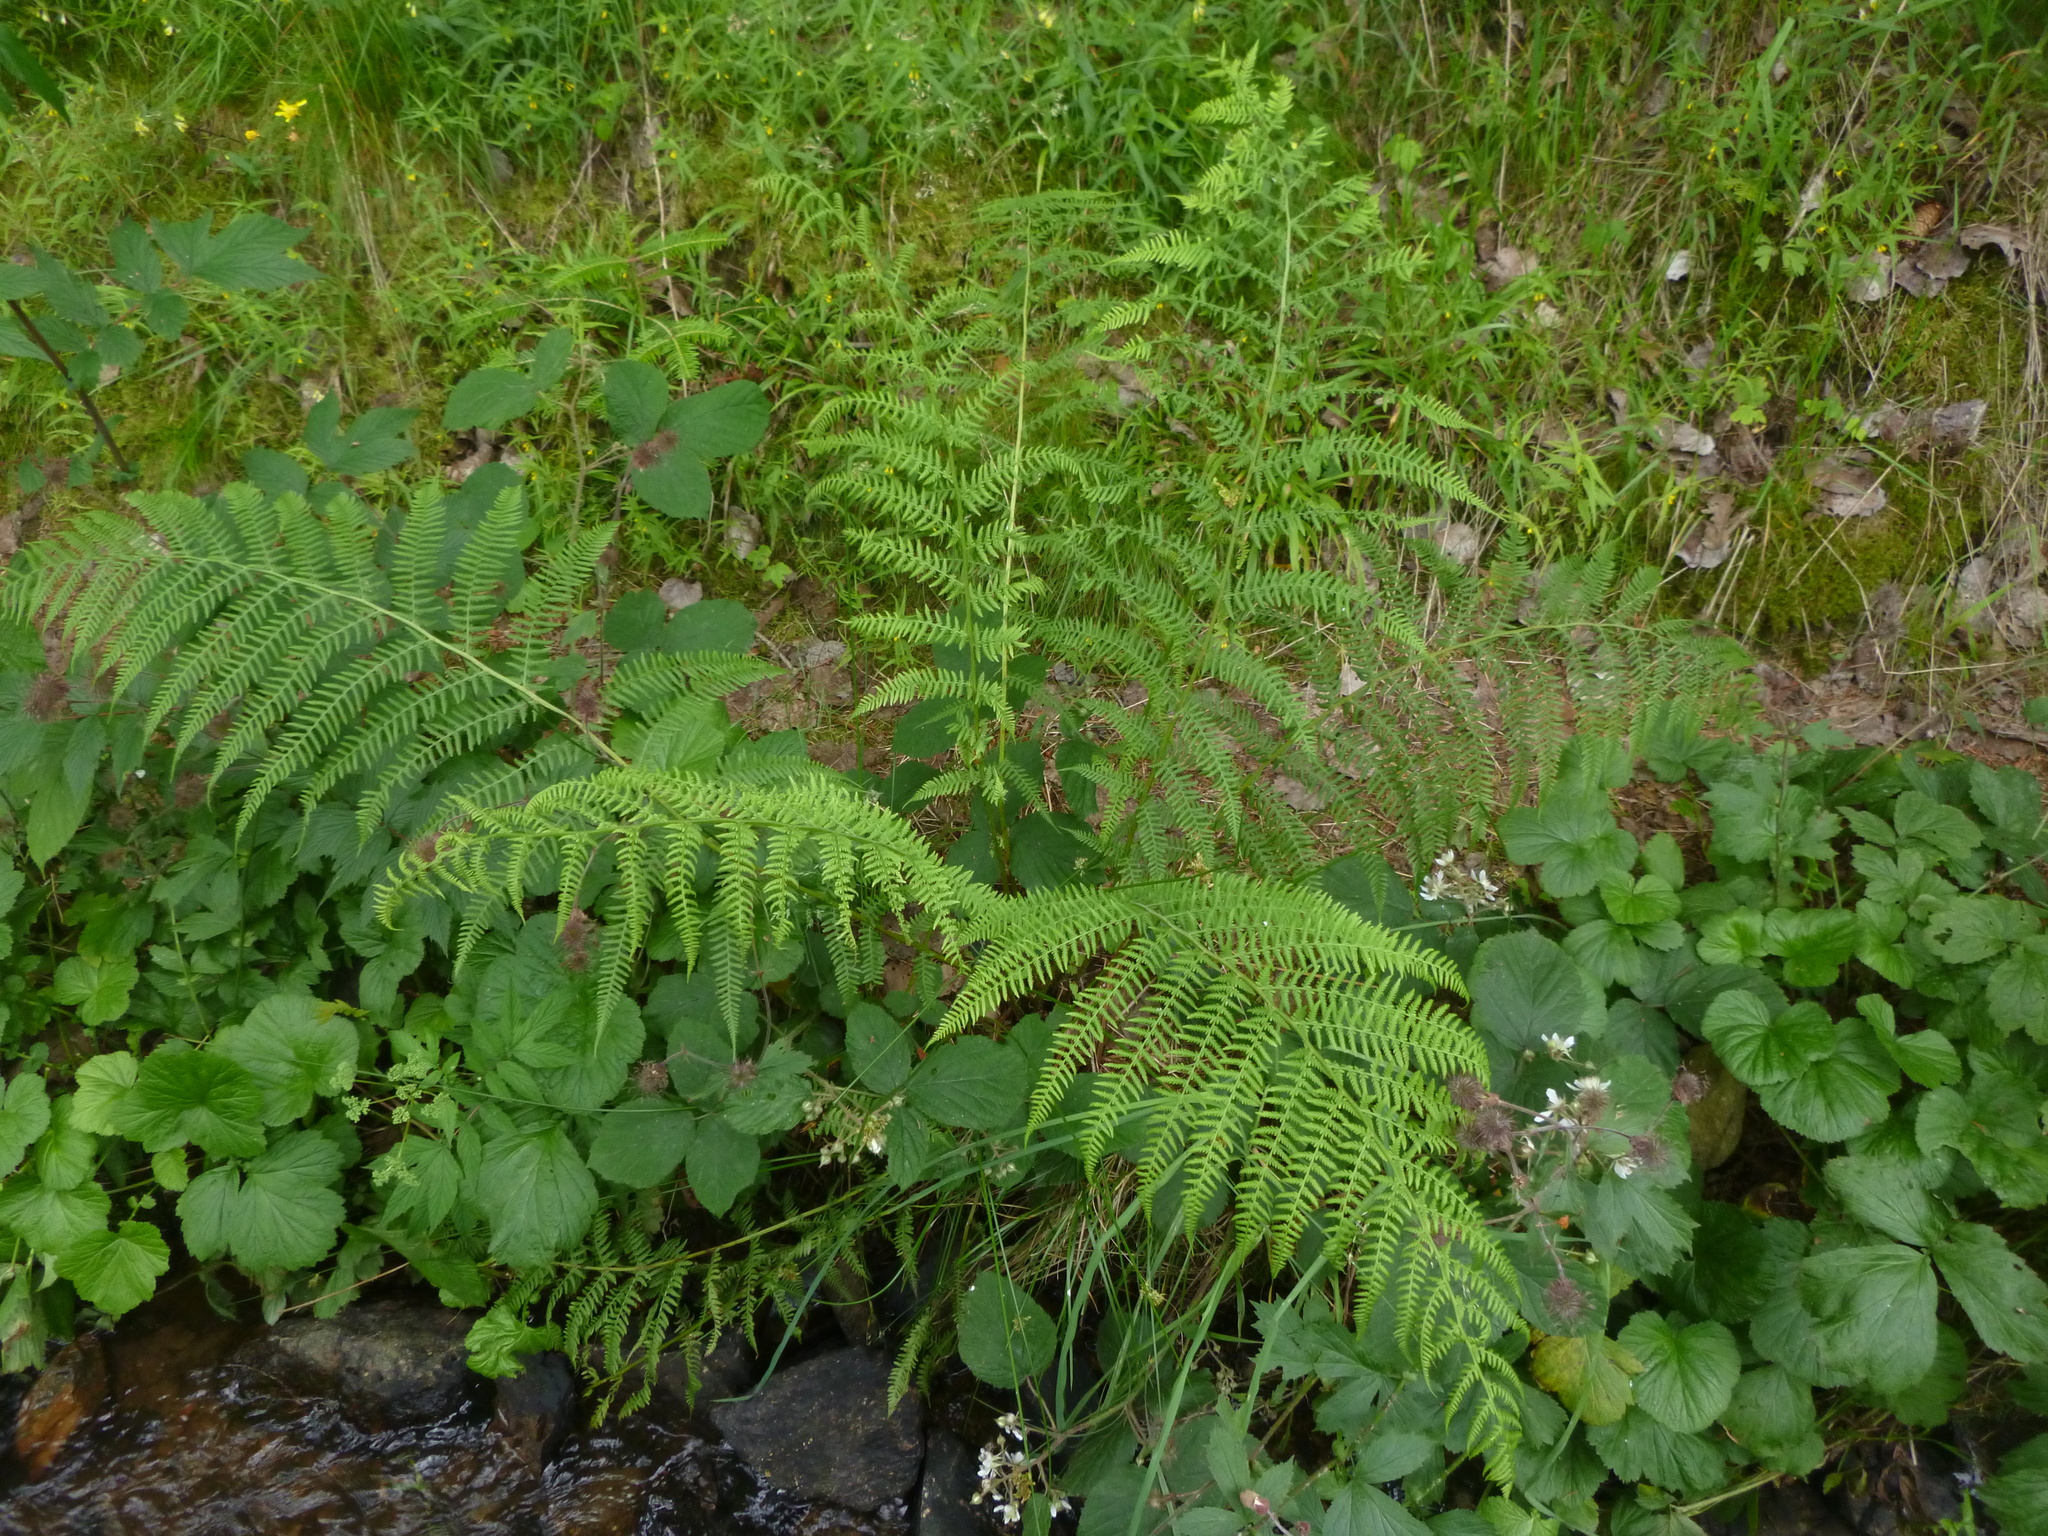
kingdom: Plantae
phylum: Tracheophyta
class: Polypodiopsida
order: Polypodiales
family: Athyriaceae
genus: Athyrium
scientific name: Athyrium filix-femina
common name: Lady fern
